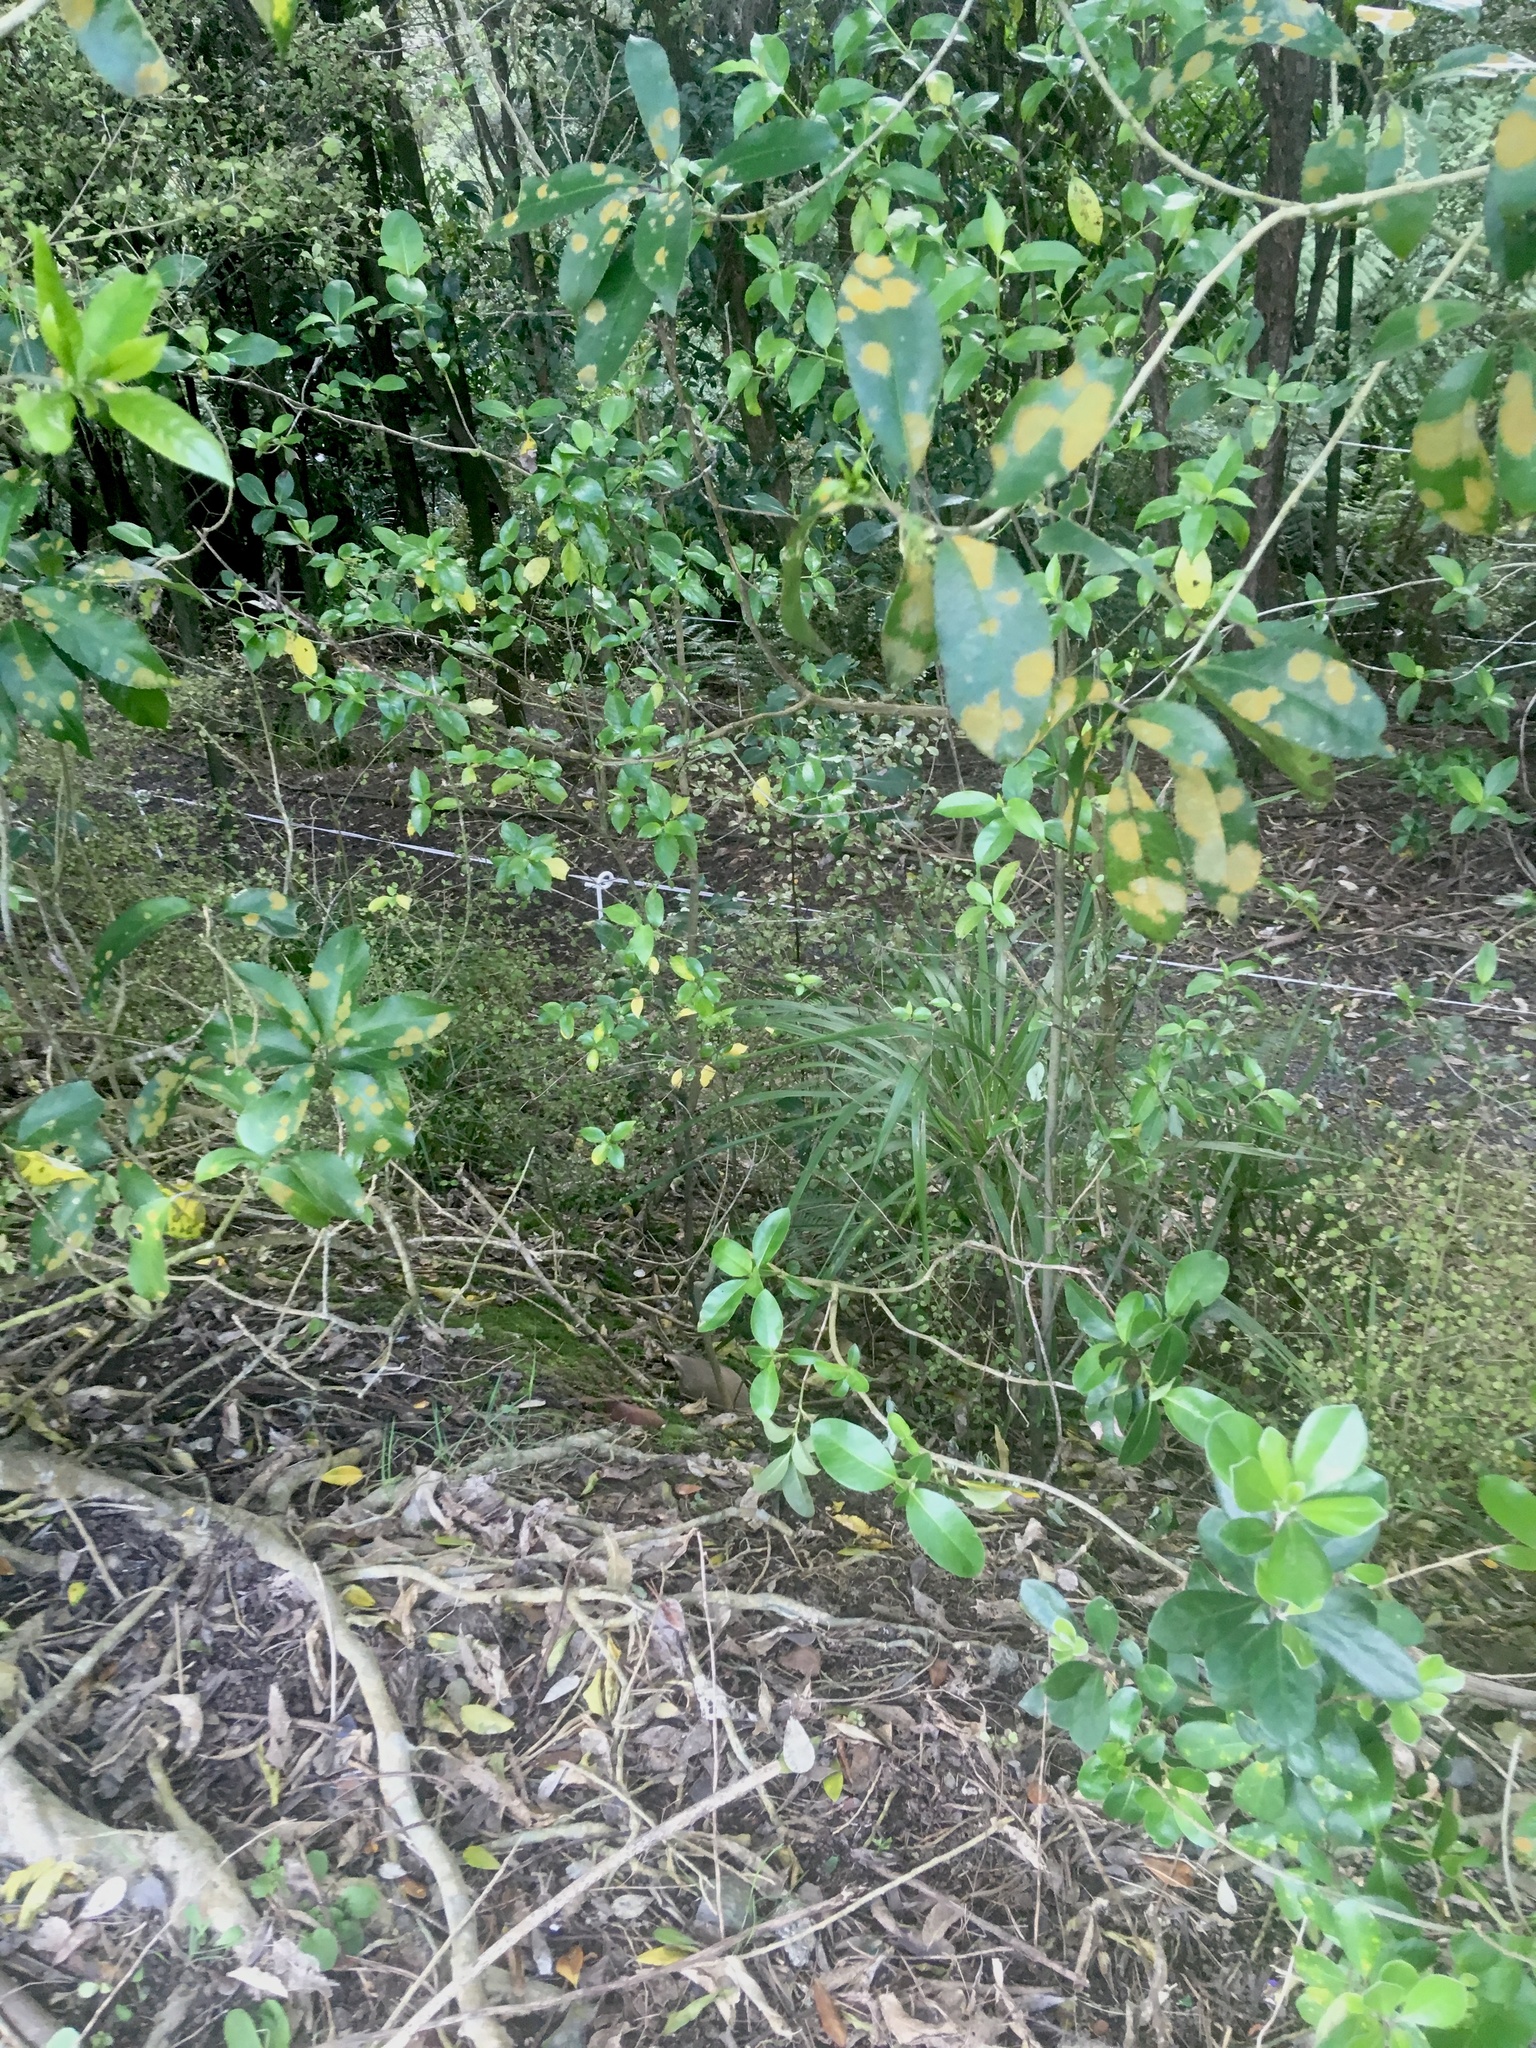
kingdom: Plantae
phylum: Tracheophyta
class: Magnoliopsida
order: Gentianales
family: Rubiaceae
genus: Coprosma
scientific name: Coprosma areolata
